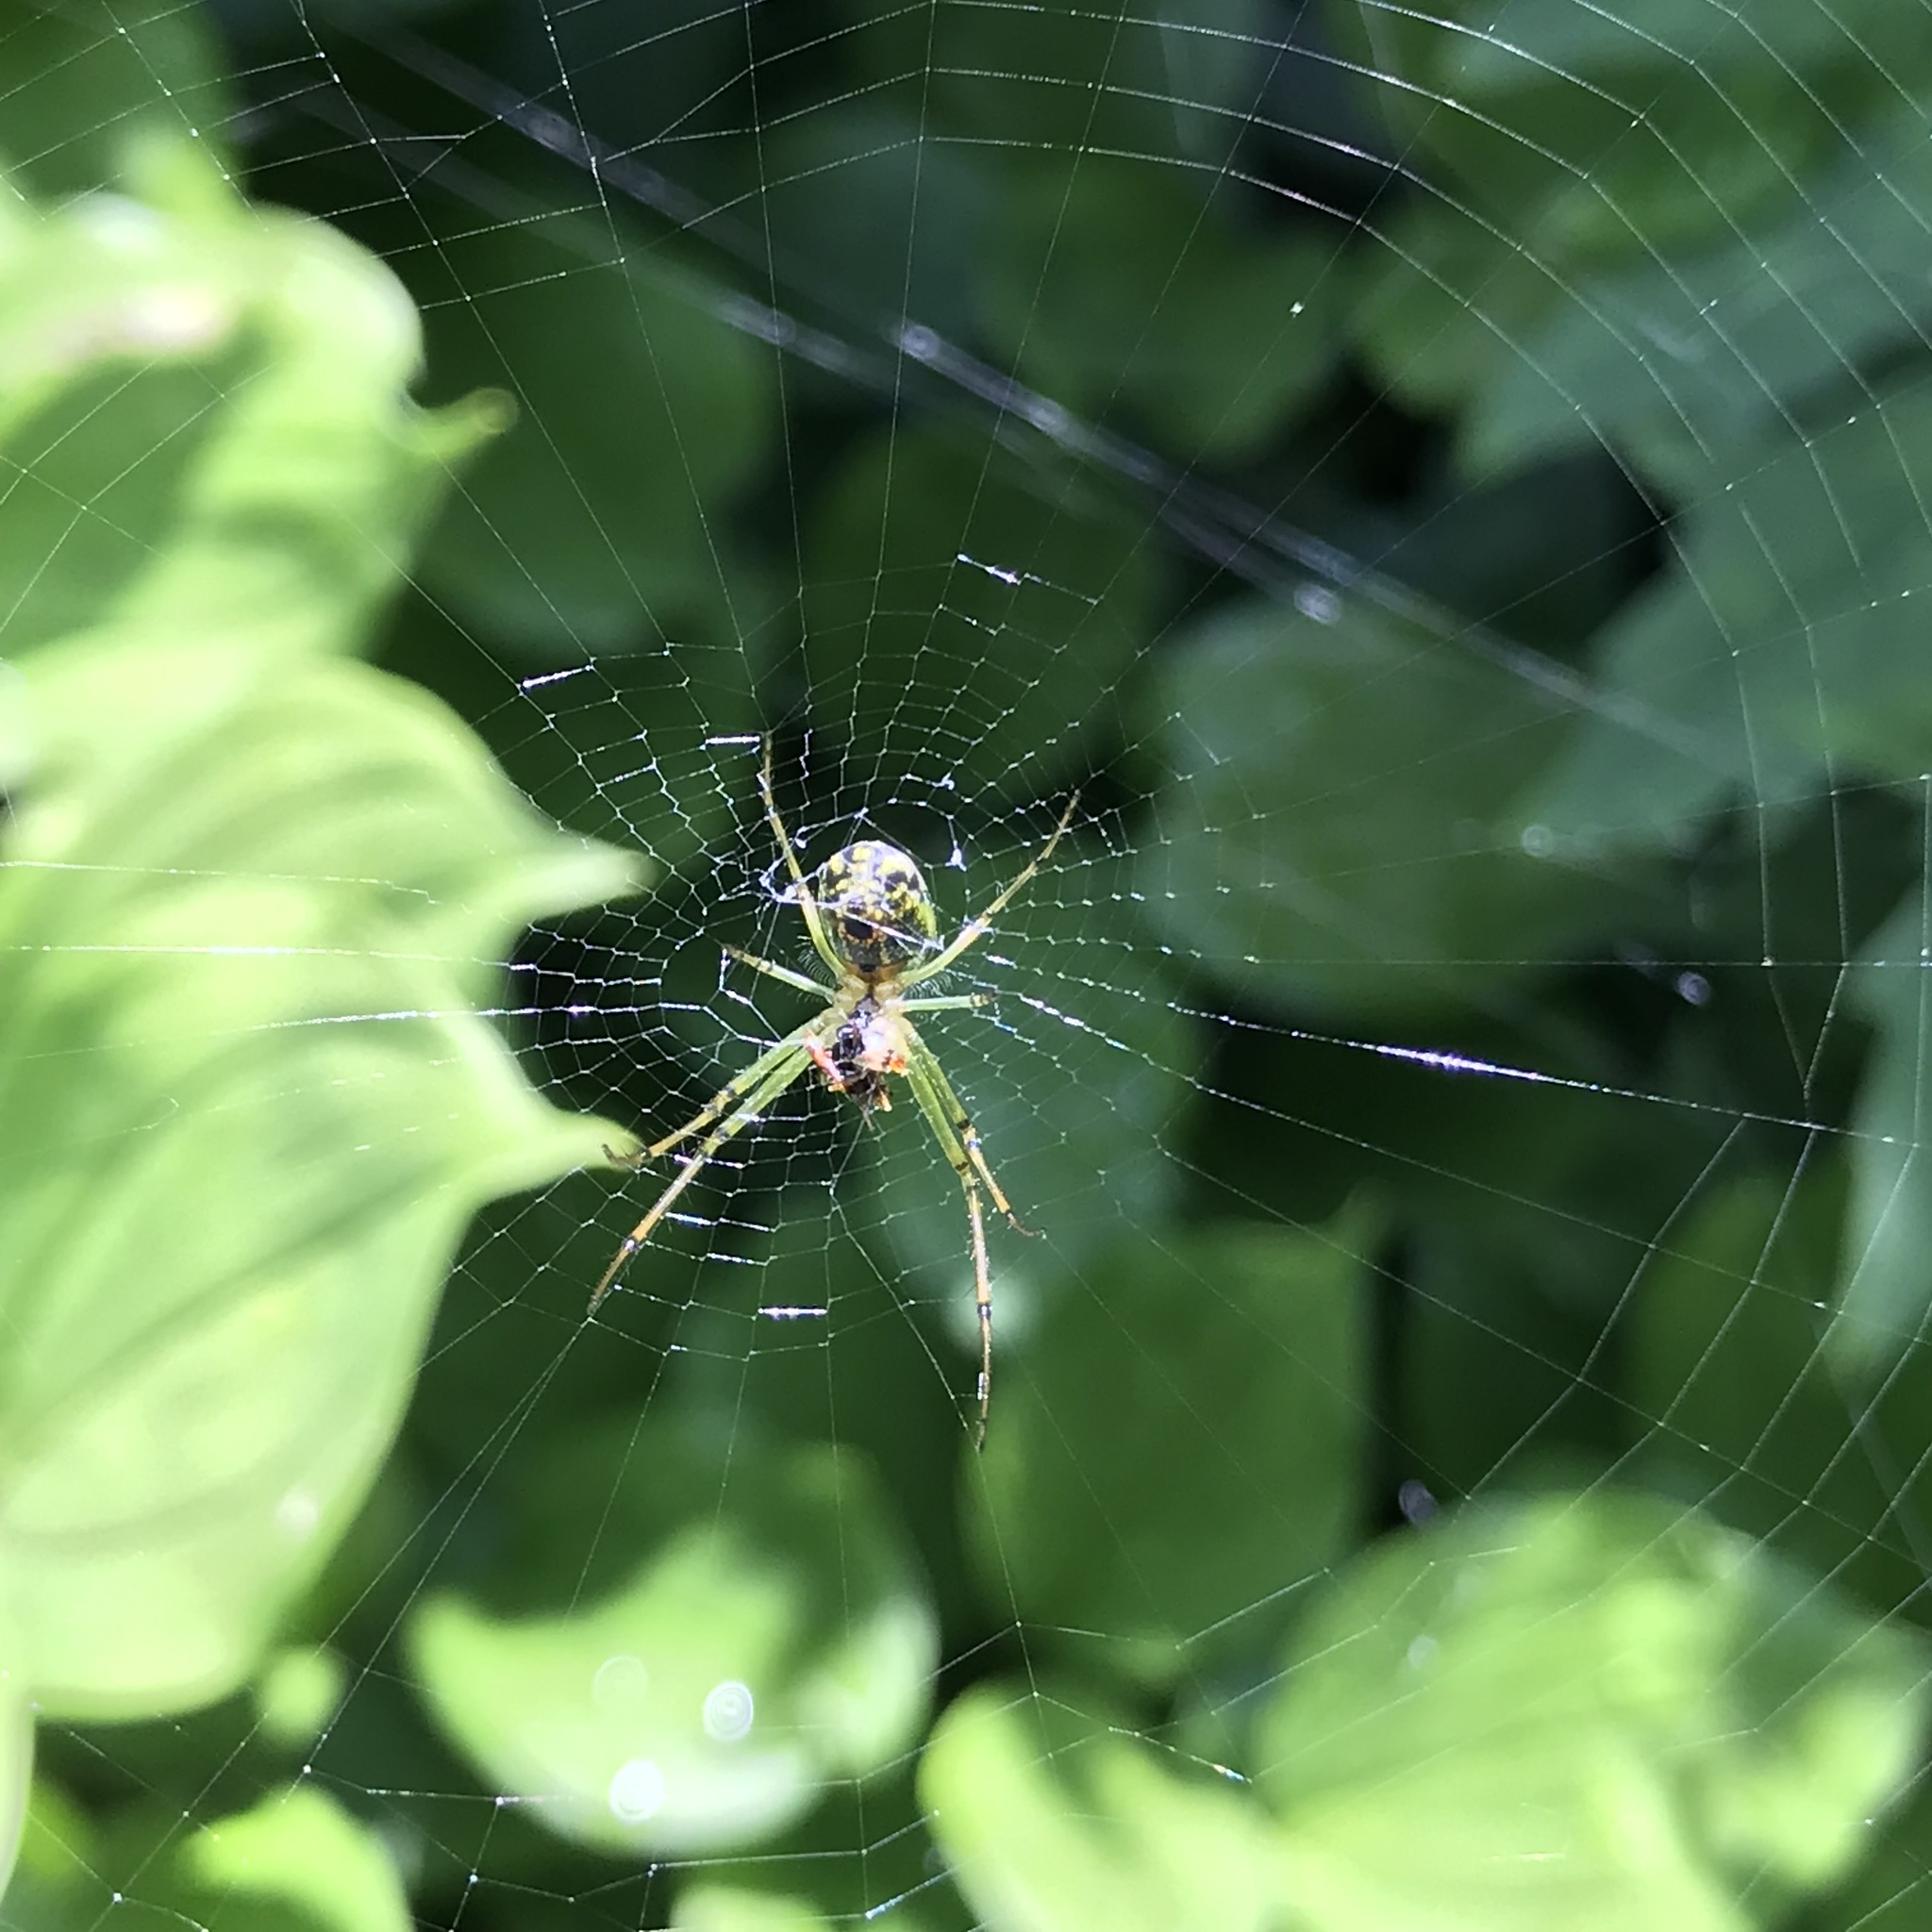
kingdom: Animalia
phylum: Arthropoda
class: Arachnida
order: Araneae
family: Tetragnathidae
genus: Leucauge
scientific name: Leucauge venusta
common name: Longjawed orb weavers
